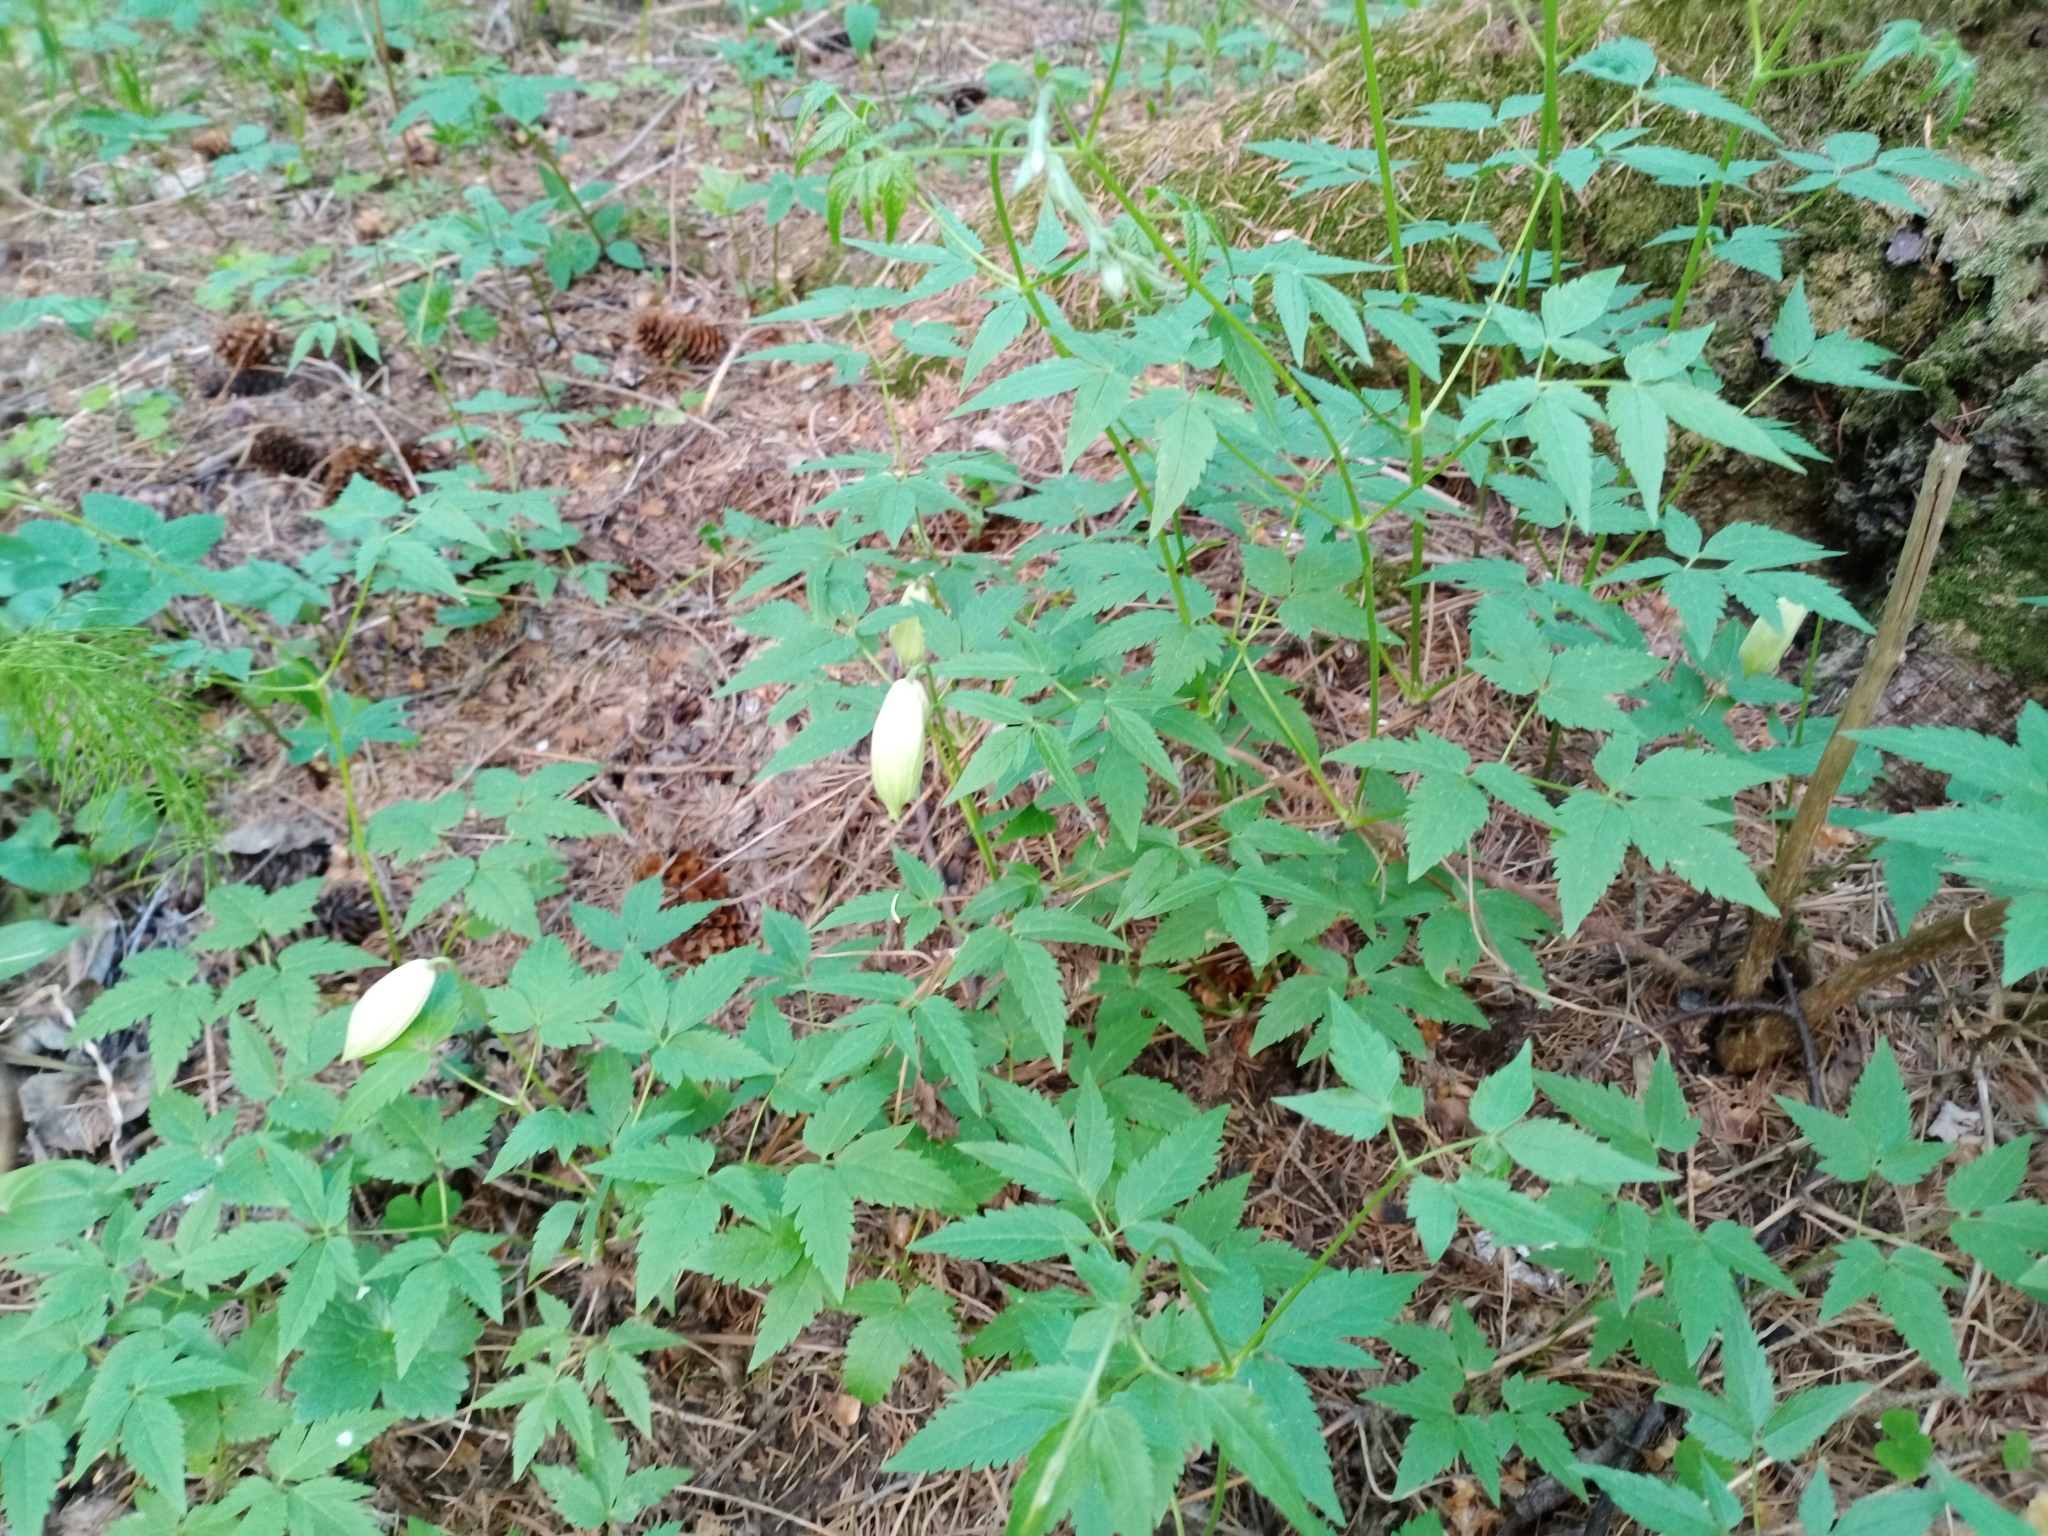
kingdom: Plantae
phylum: Tracheophyta
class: Magnoliopsida
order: Ranunculales
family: Ranunculaceae
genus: Clematis
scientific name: Clematis sibirica
